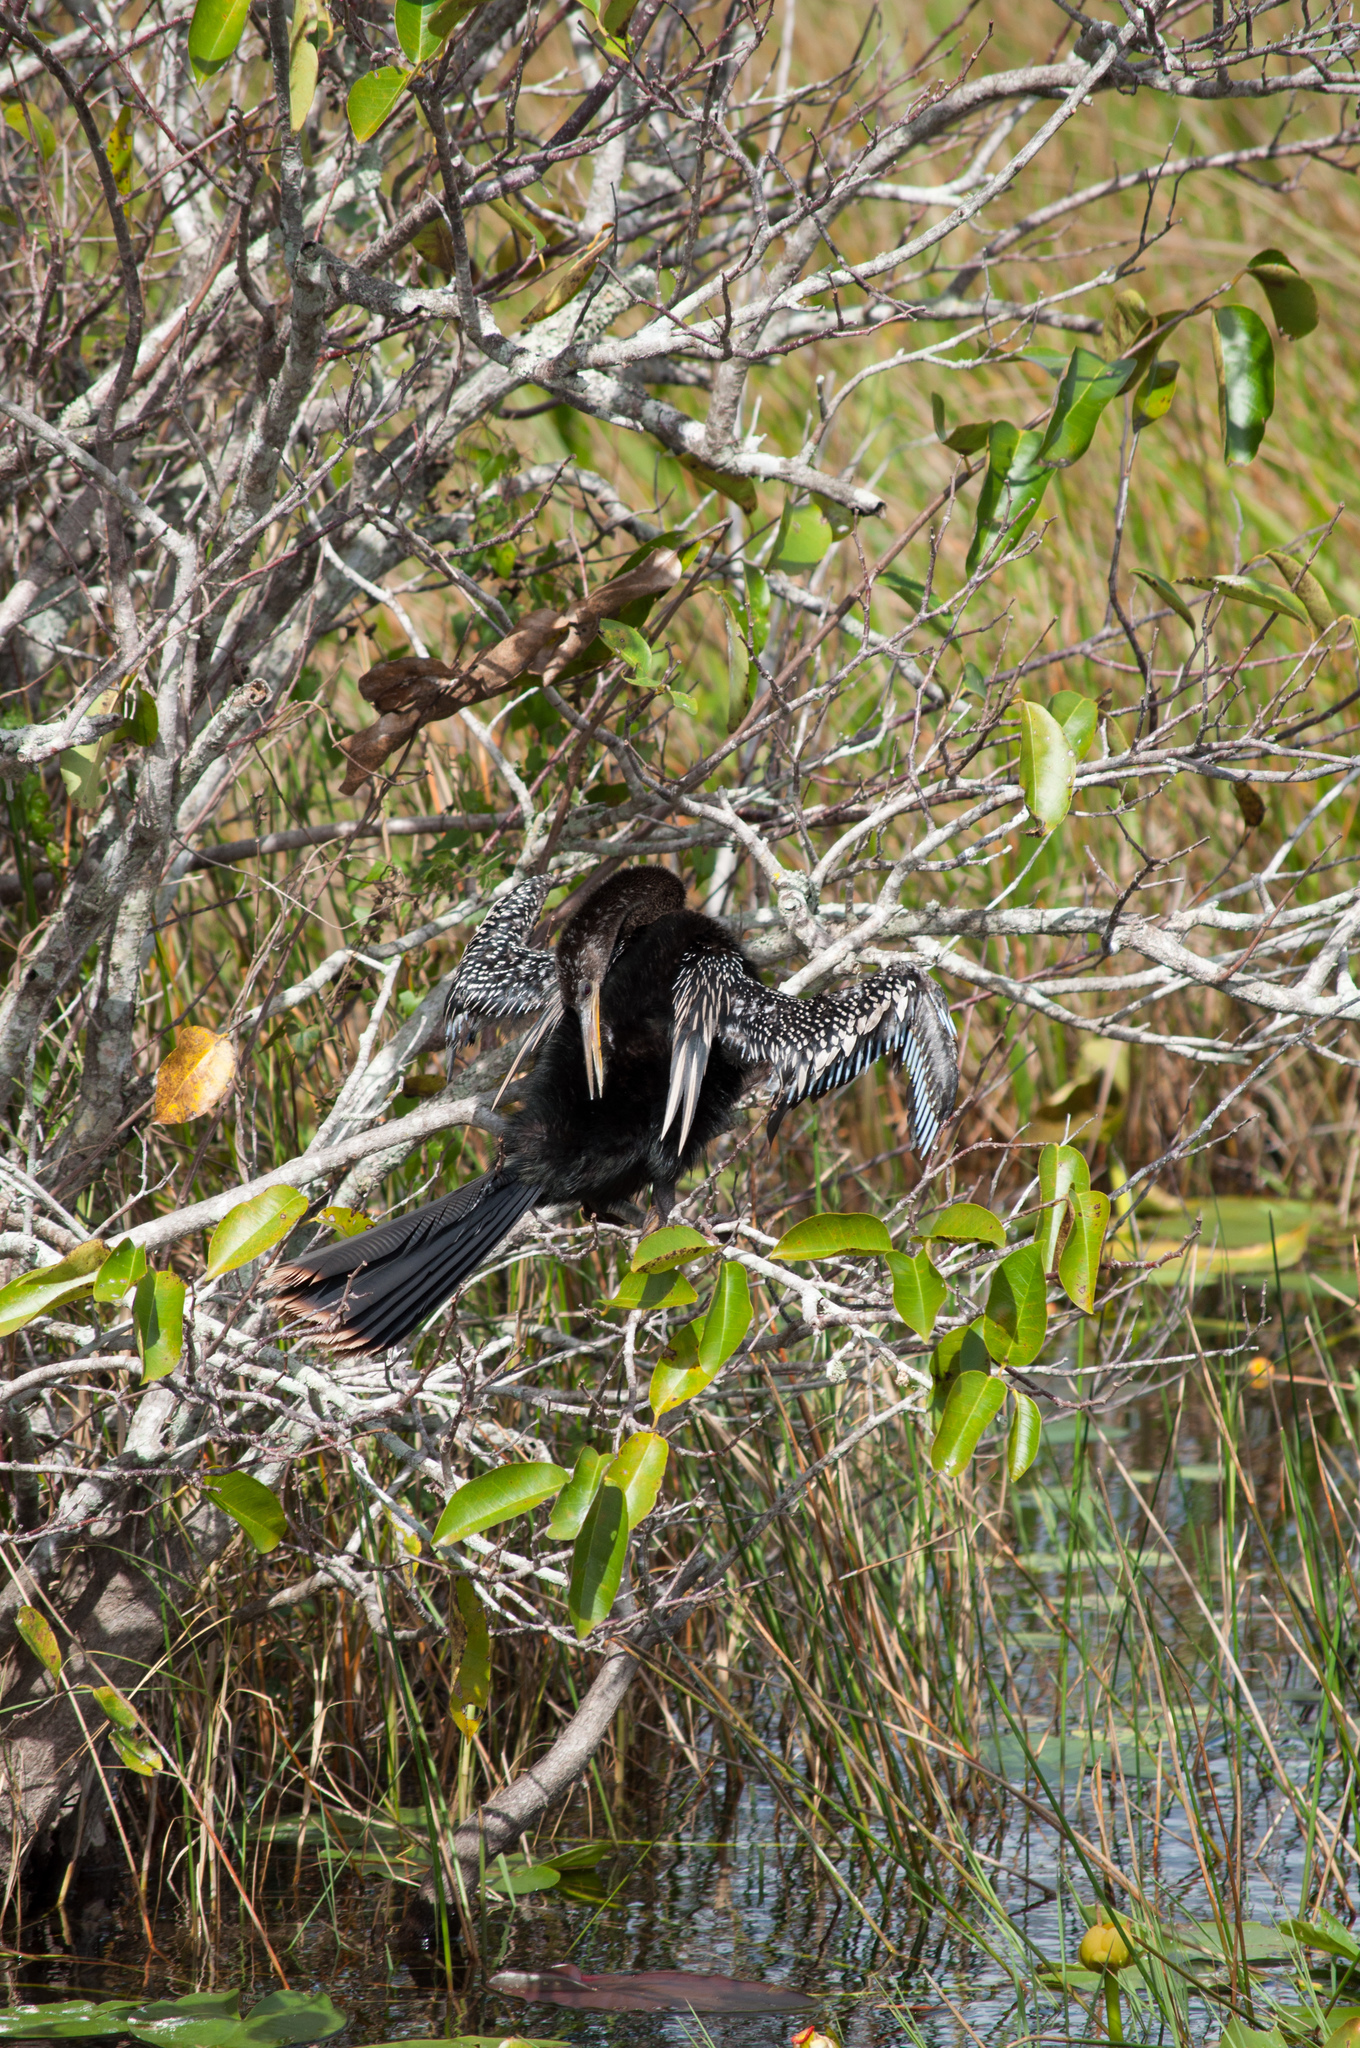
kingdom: Animalia
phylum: Chordata
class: Aves
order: Suliformes
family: Anhingidae
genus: Anhinga
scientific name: Anhinga anhinga
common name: Anhinga
